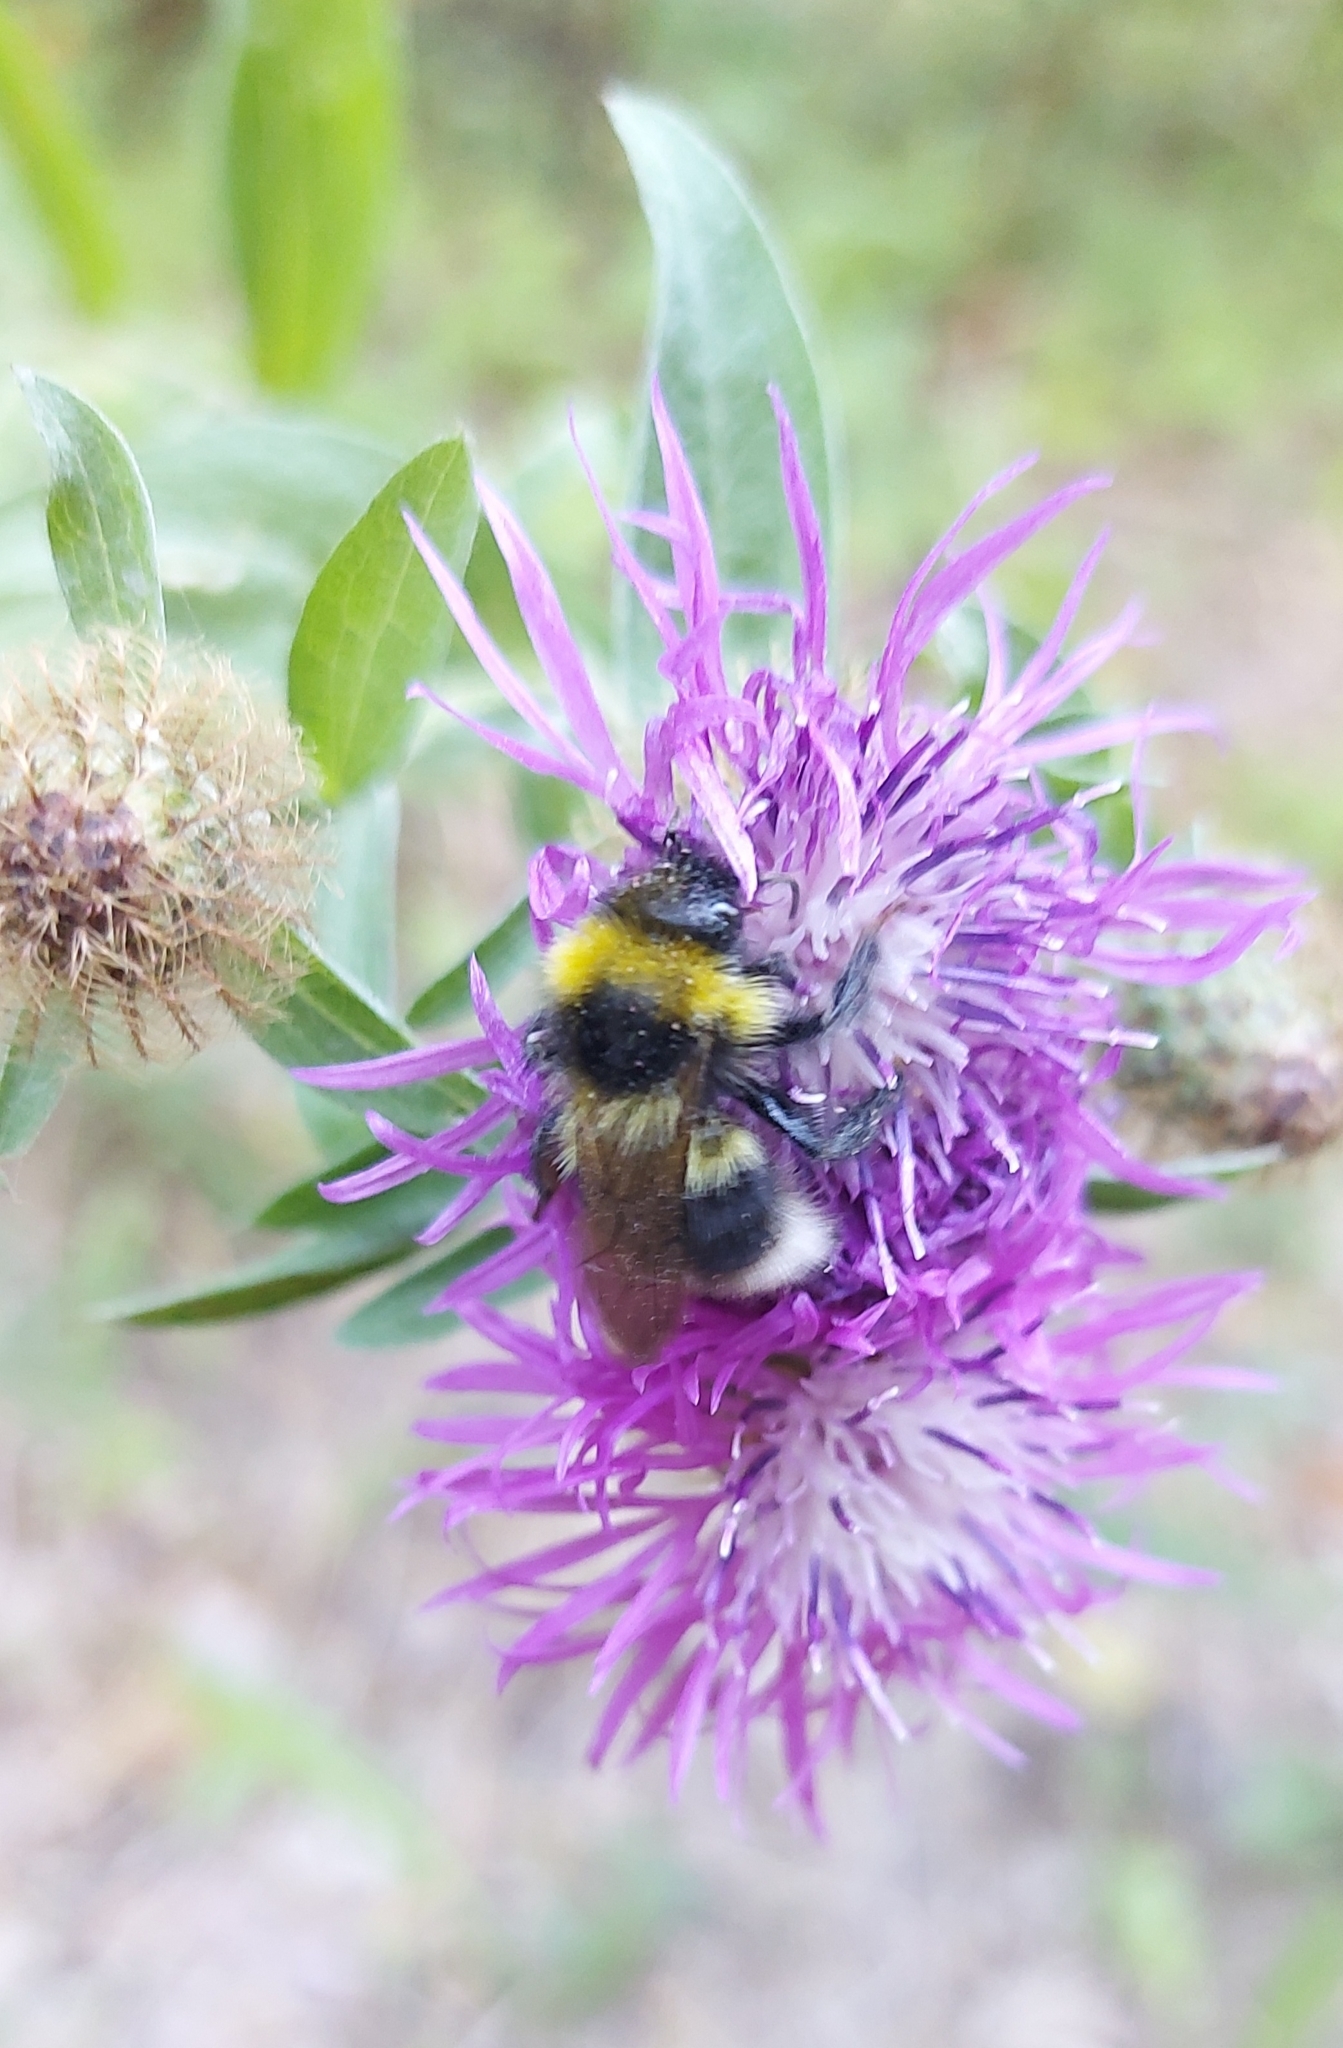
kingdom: Animalia
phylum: Arthropoda
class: Insecta
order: Hymenoptera
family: Apidae
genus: Bombus
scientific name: Bombus
